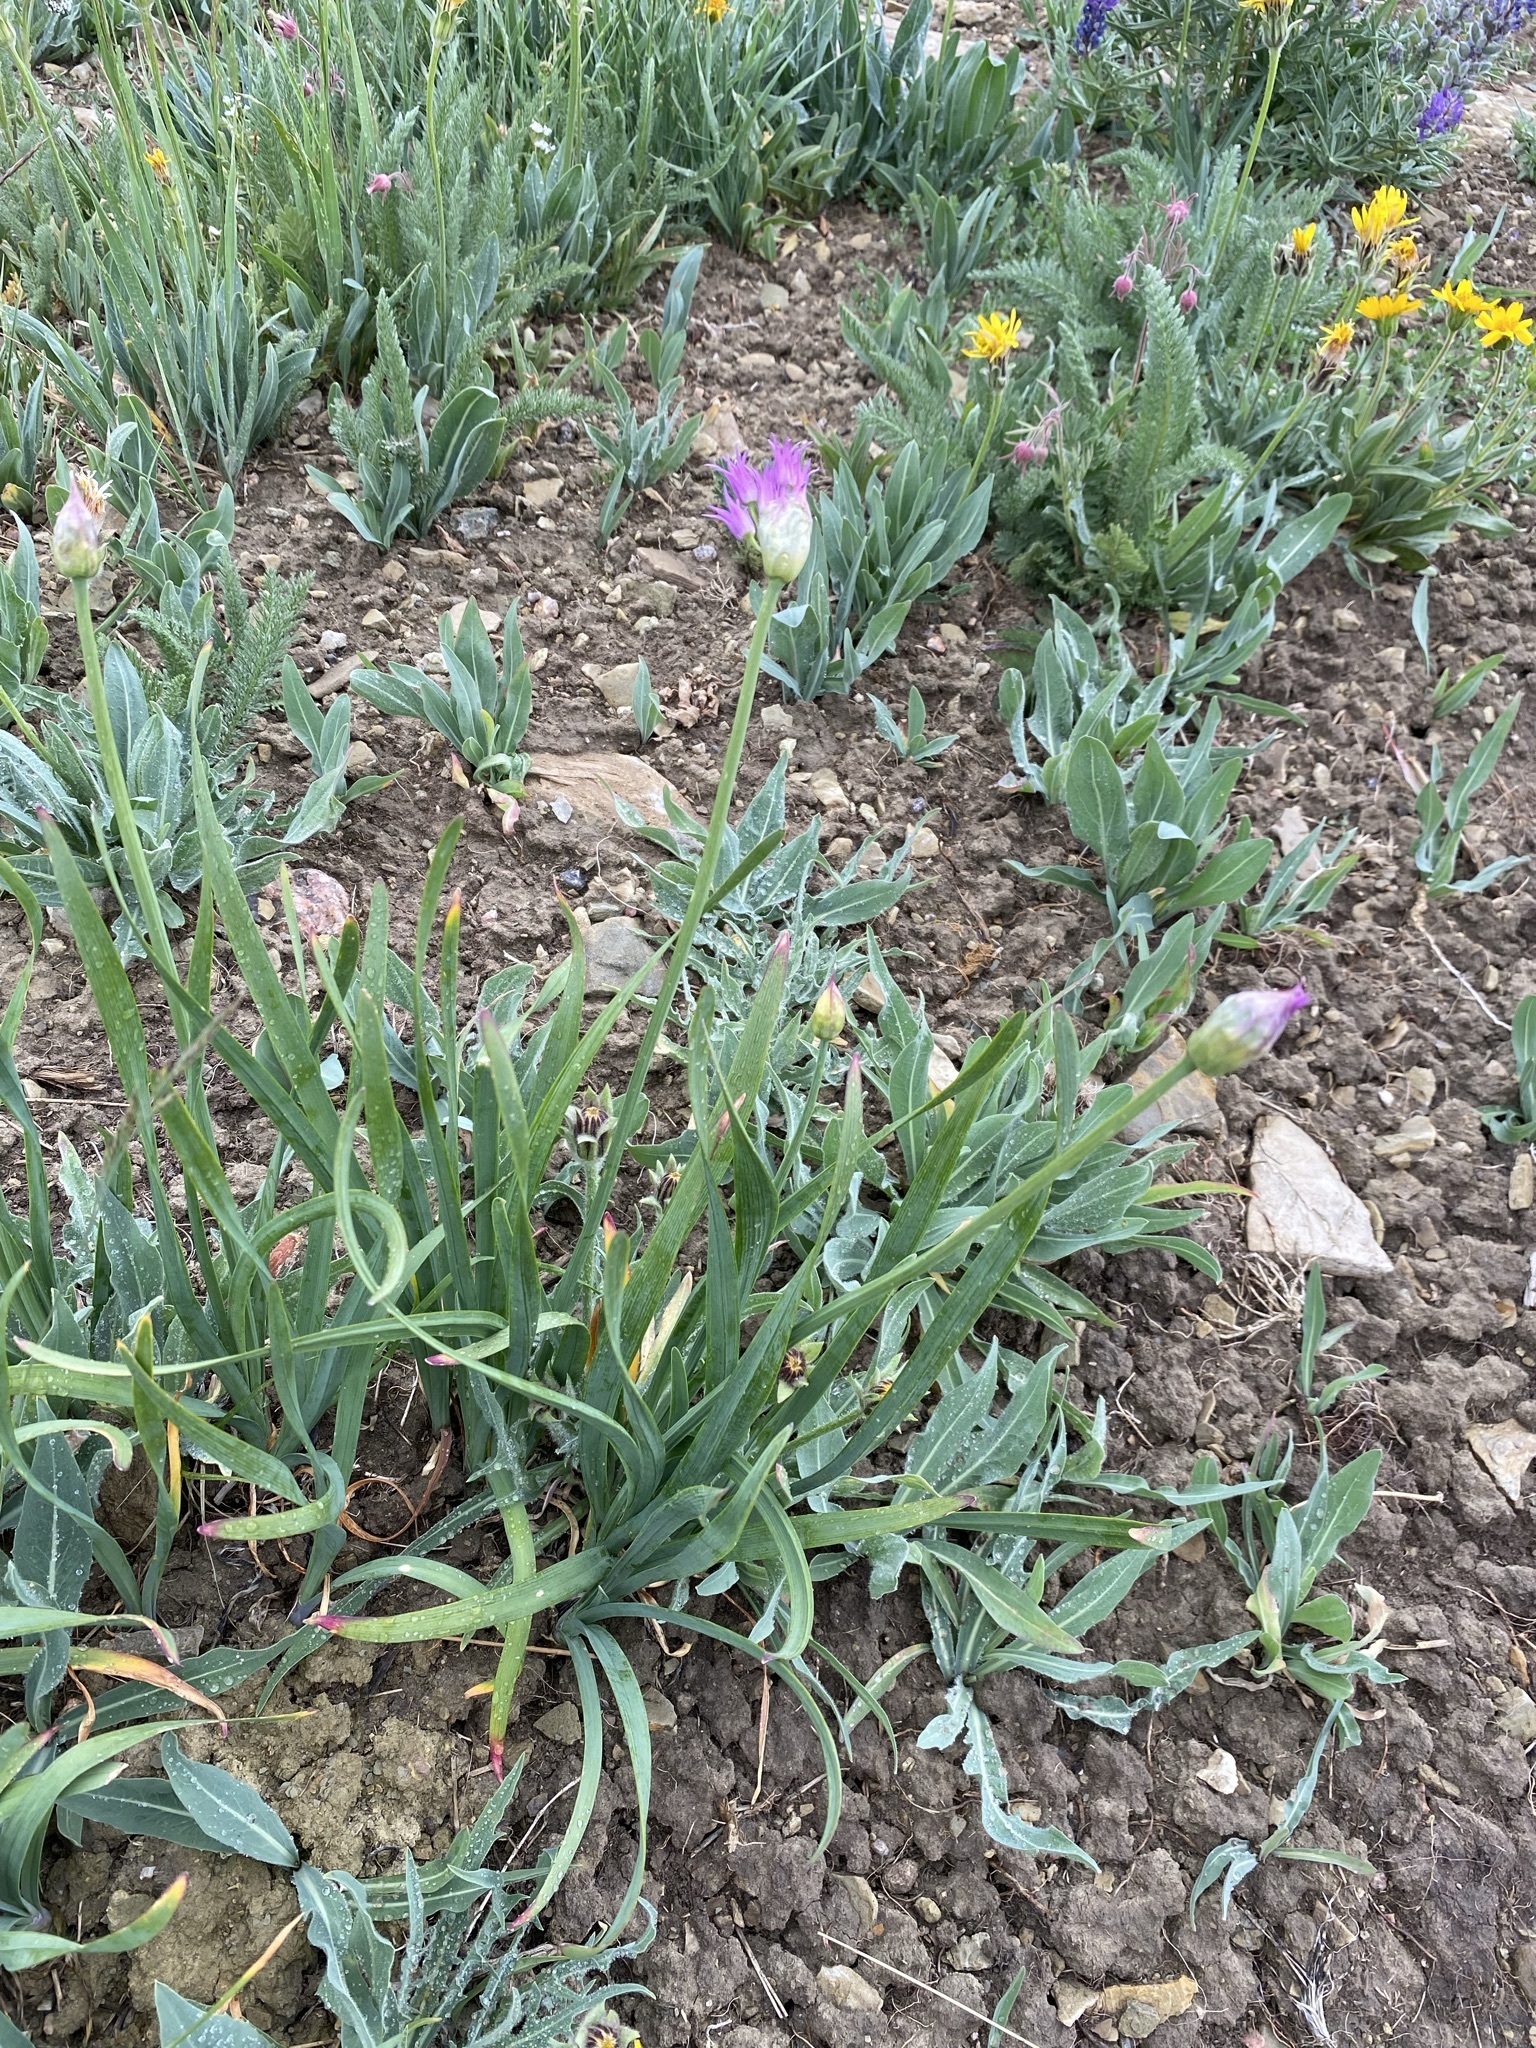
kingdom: Plantae
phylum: Tracheophyta
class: Liliopsida
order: Asparagales
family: Amaryllidaceae
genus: Allium
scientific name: Allium brevistylum
